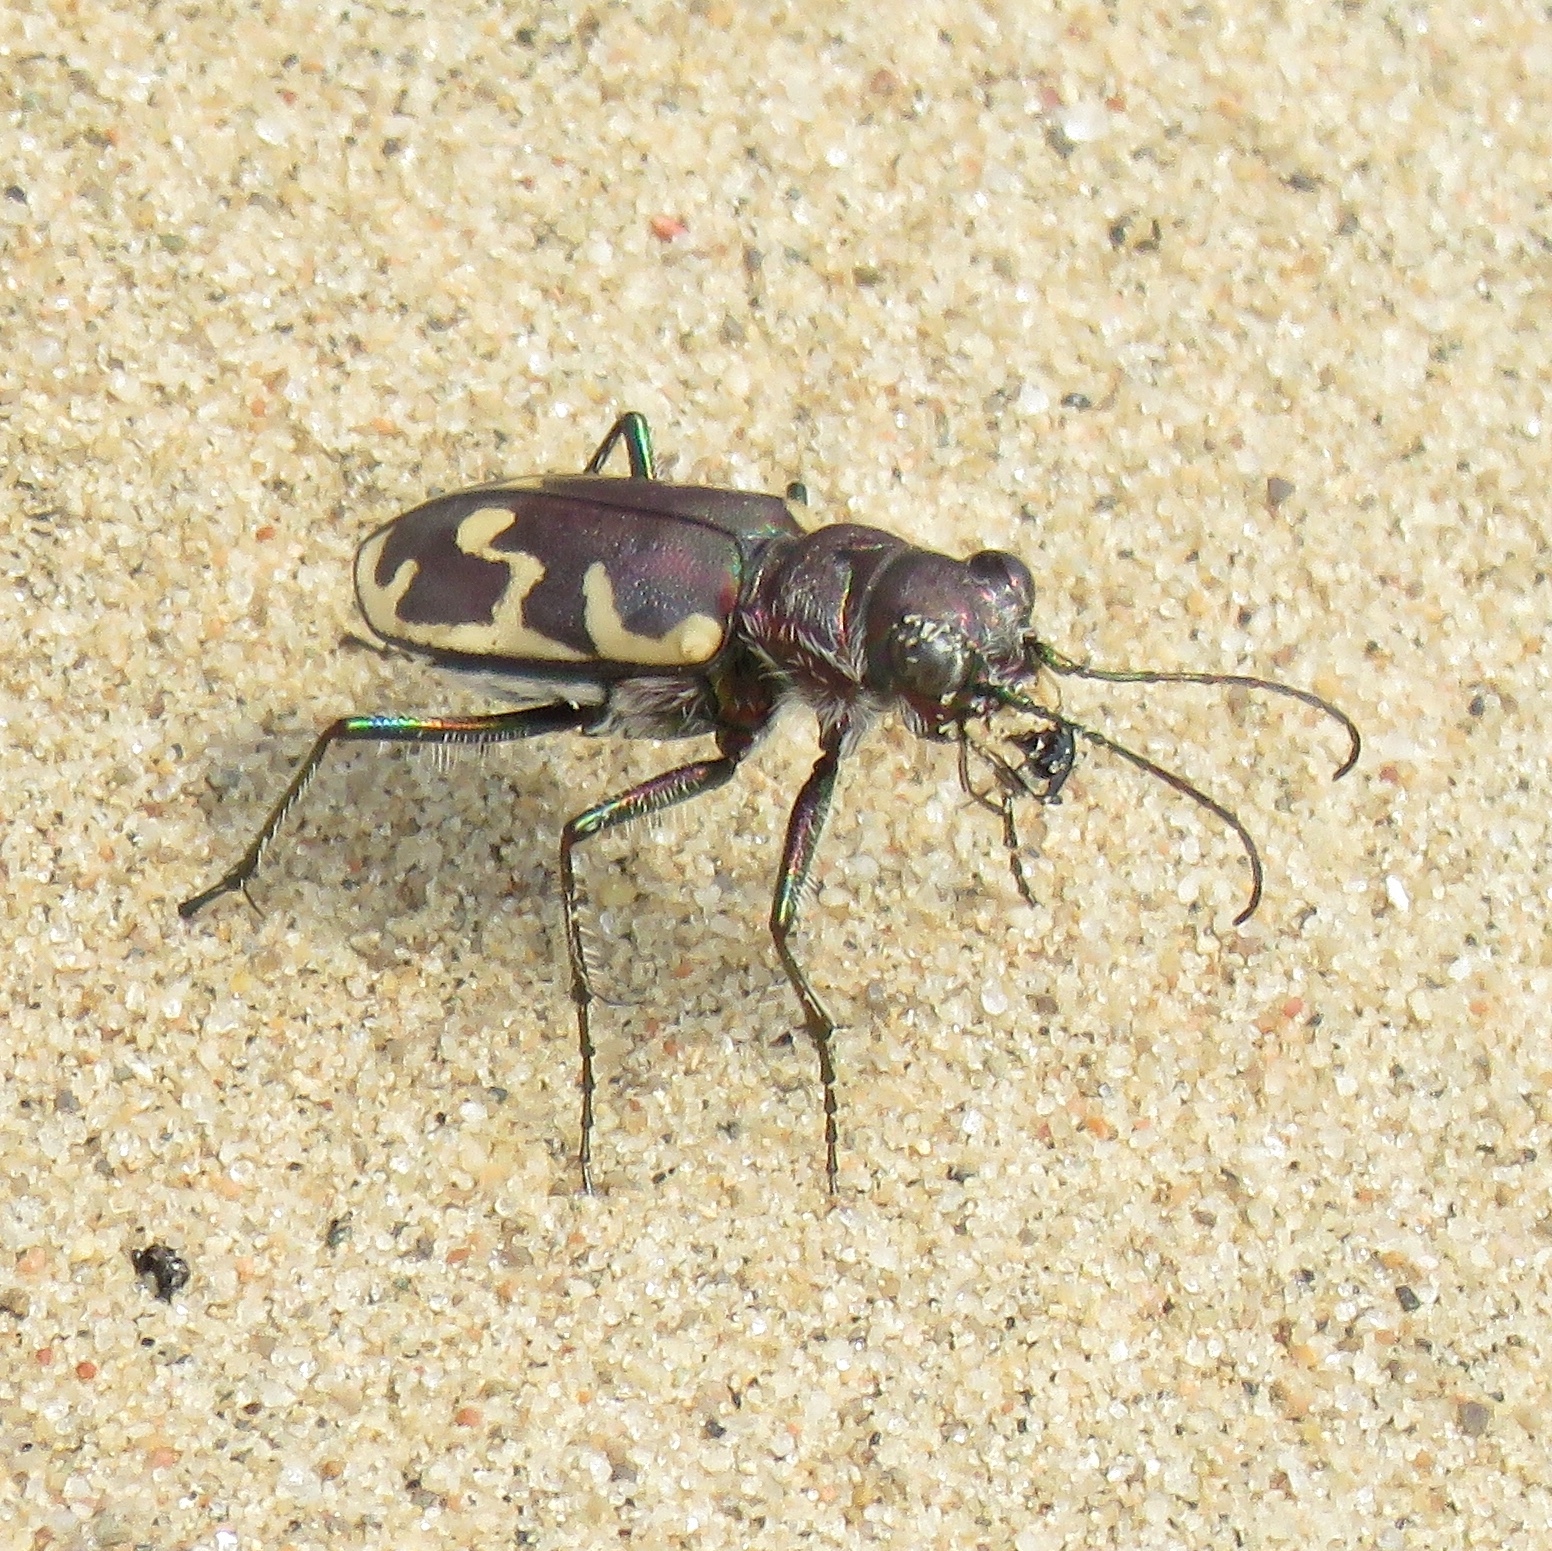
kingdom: Animalia
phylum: Arthropoda
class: Insecta
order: Coleoptera
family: Carabidae
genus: Cicindela
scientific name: Cicindela formosa
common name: Big sand tiger beetle
